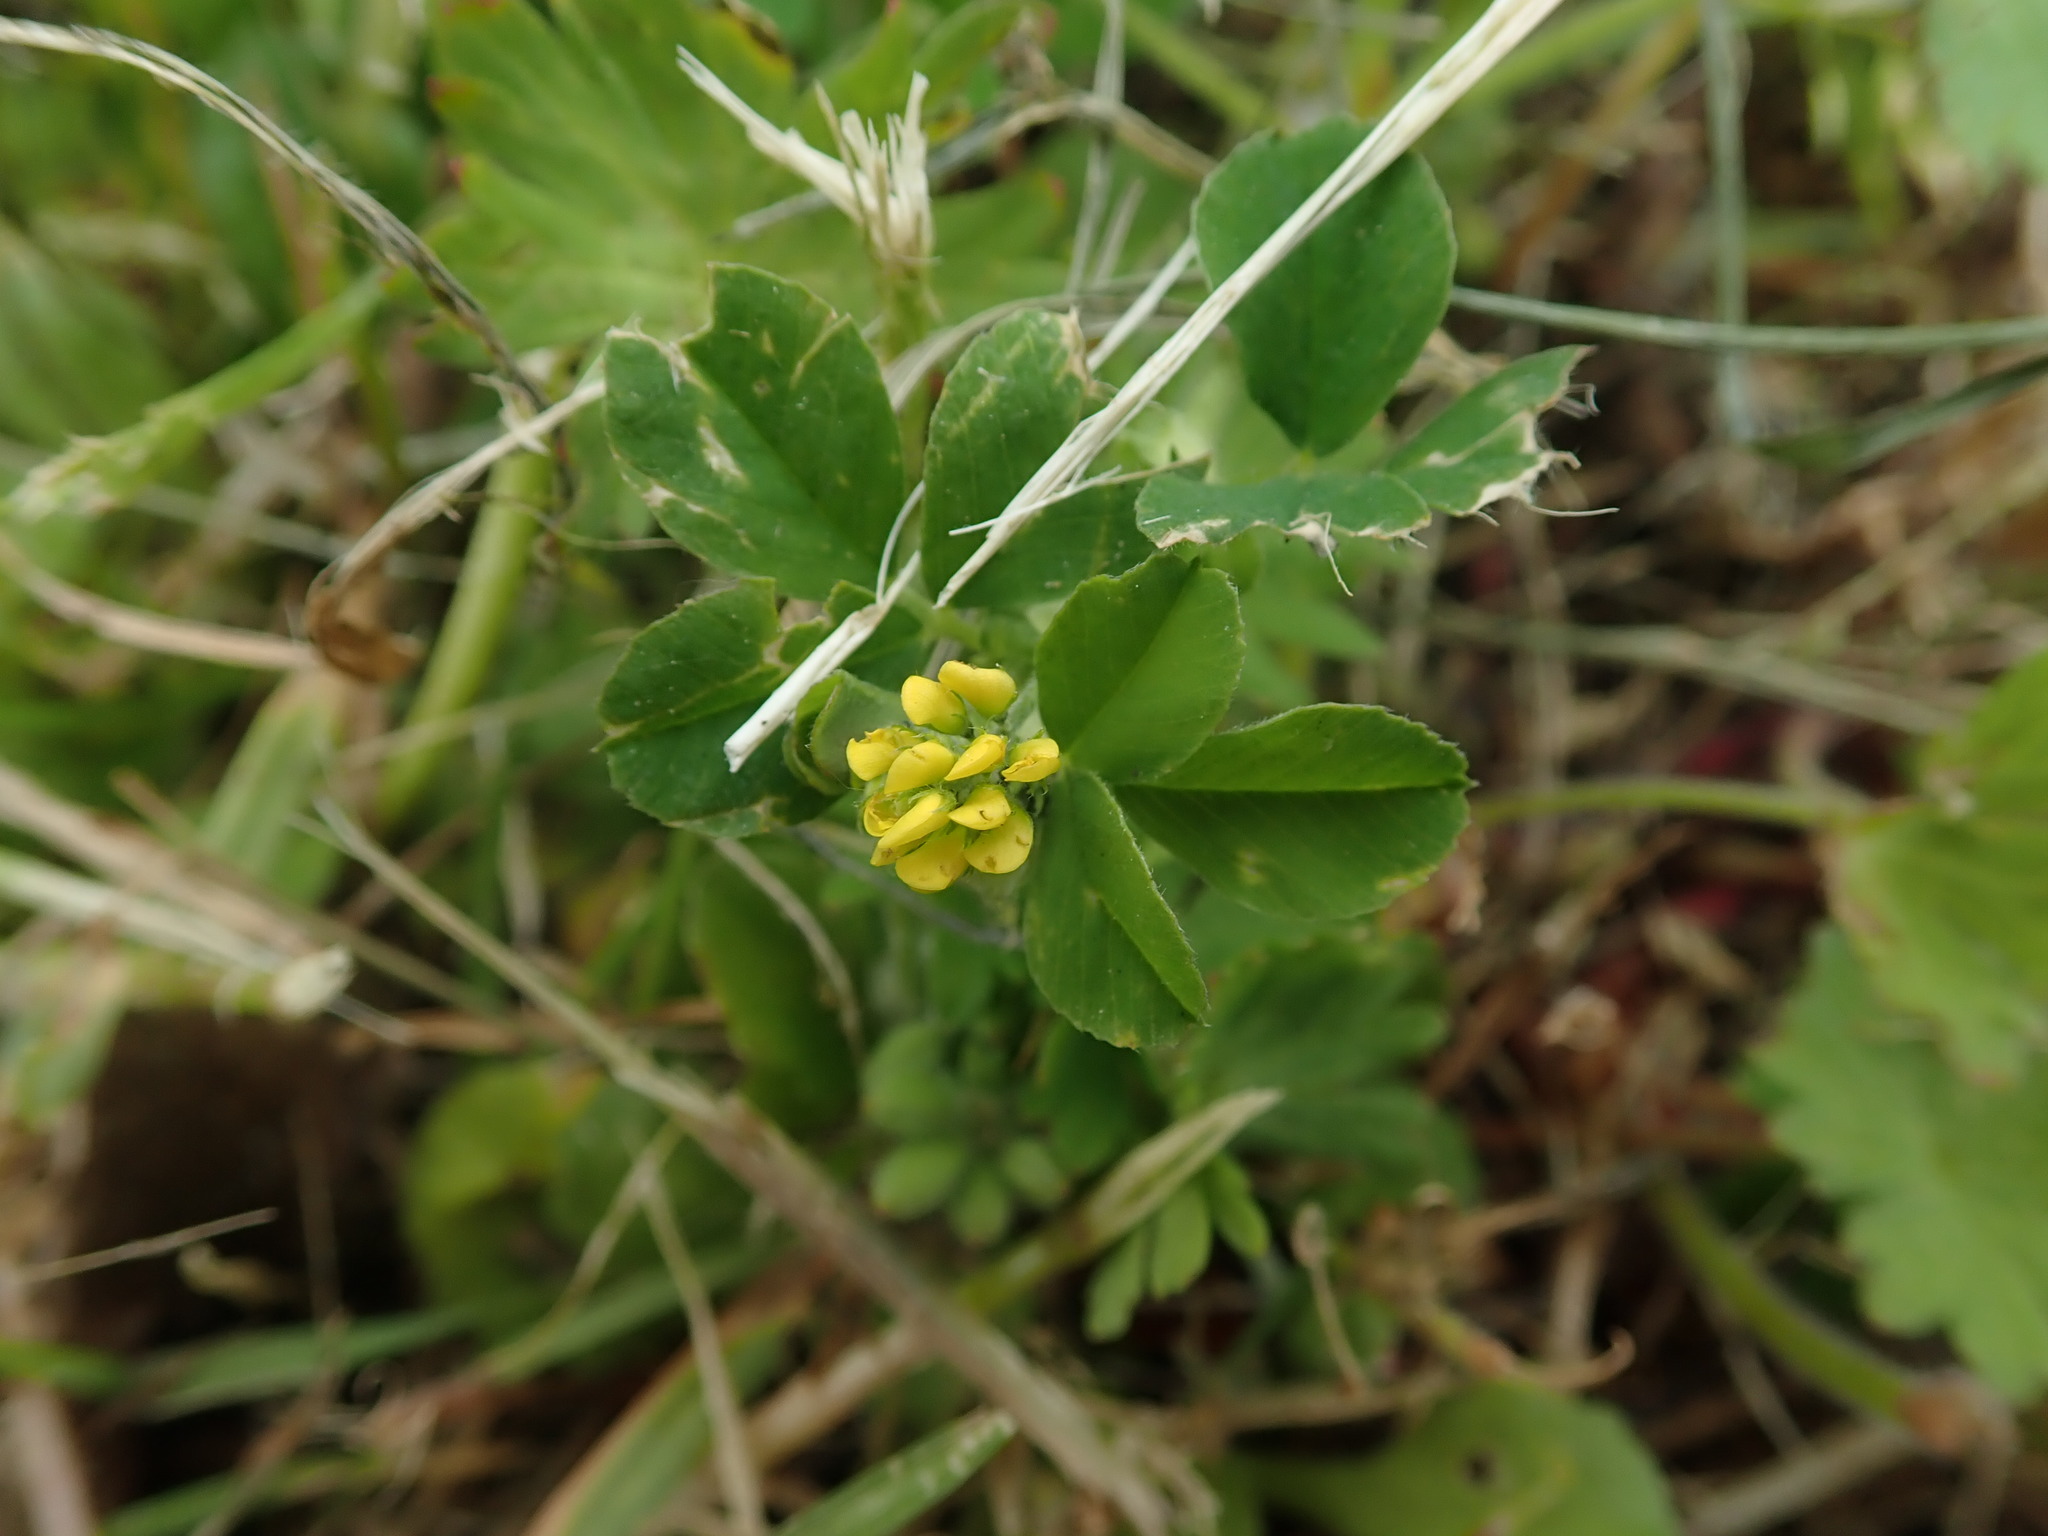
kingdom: Plantae
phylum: Tracheophyta
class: Magnoliopsida
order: Fabales
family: Fabaceae
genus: Medicago
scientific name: Medicago lupulina
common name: Black medick
